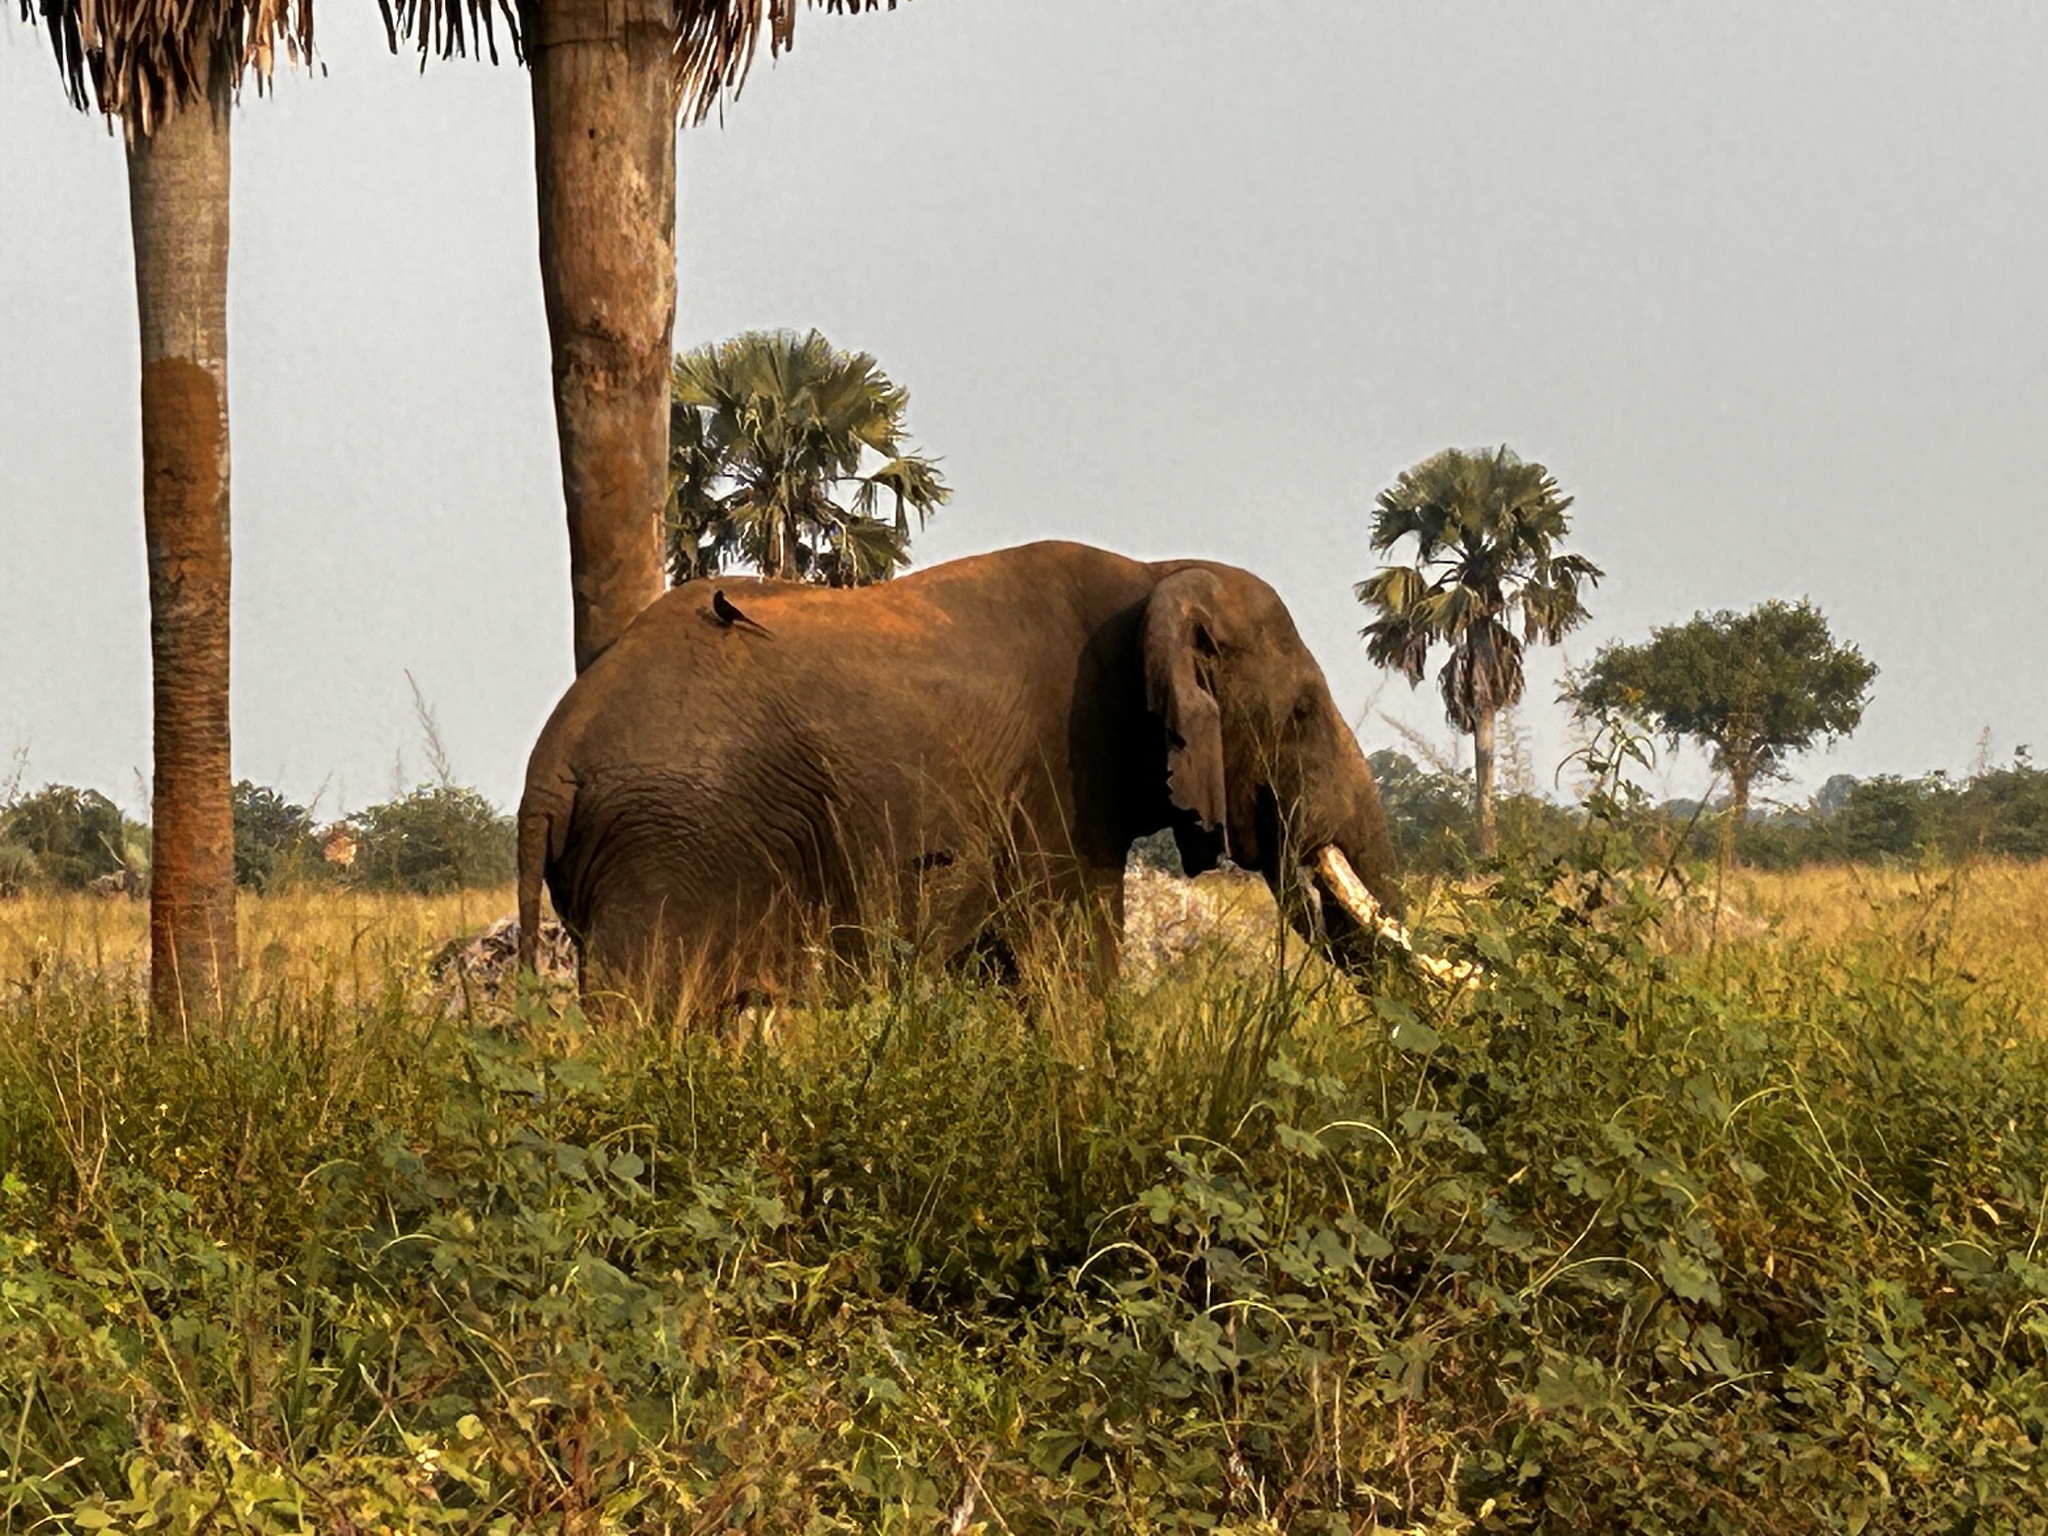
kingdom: Animalia
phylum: Chordata
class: Mammalia
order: Proboscidea
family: Elephantidae
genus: Loxodonta
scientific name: Loxodonta africana
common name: African elephant
